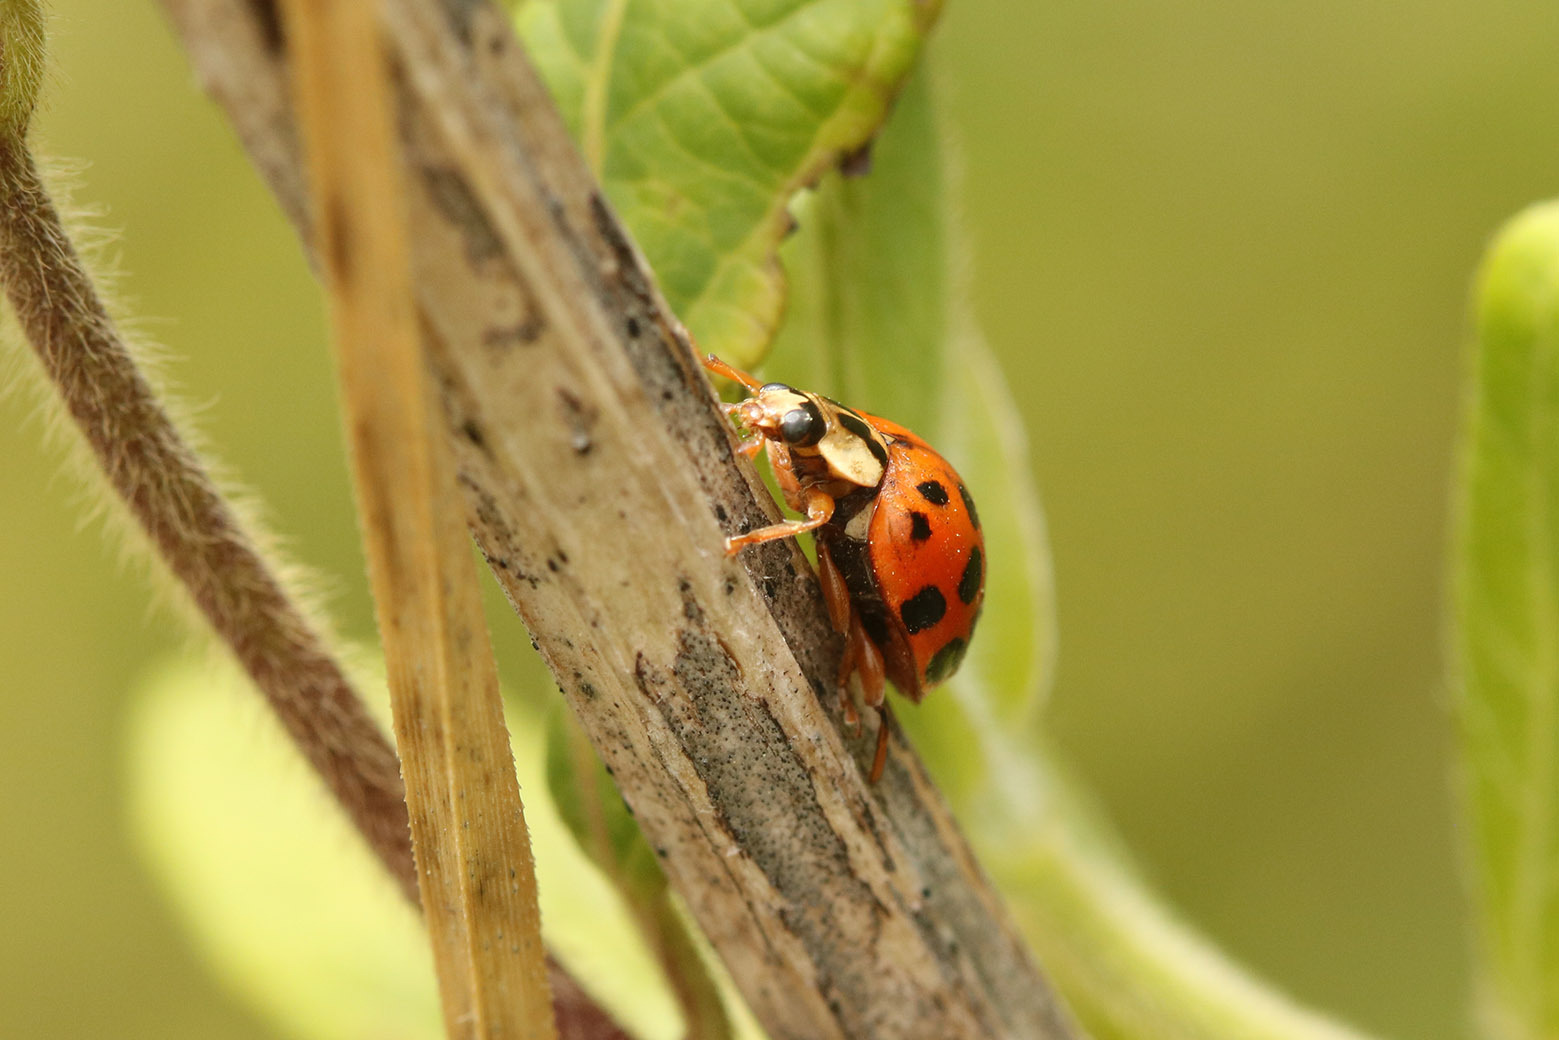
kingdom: Animalia
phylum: Arthropoda
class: Insecta
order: Coleoptera
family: Coccinellidae
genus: Harmonia
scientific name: Harmonia axyridis
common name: Harlequin ladybird
